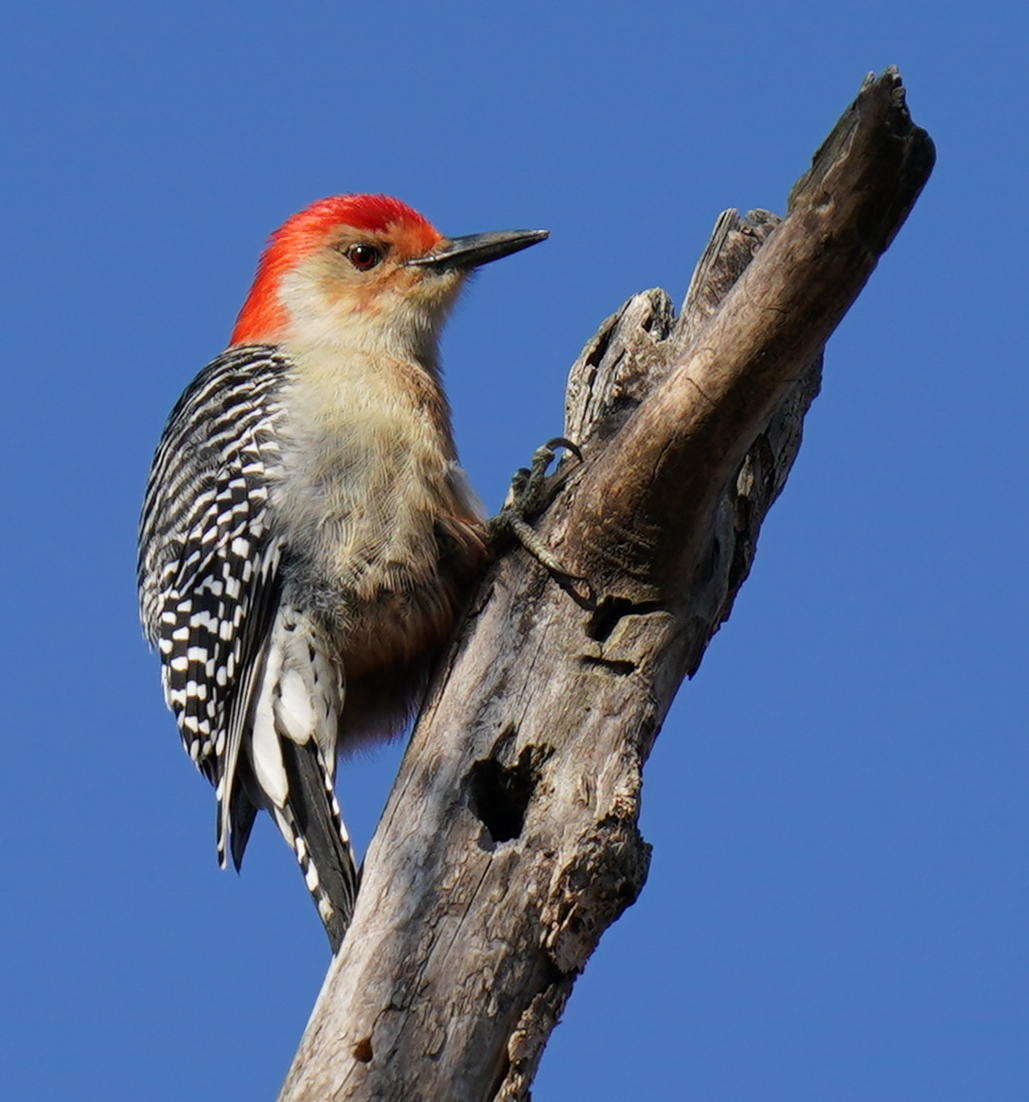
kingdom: Animalia
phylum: Chordata
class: Aves
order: Piciformes
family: Picidae
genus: Melanerpes
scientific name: Melanerpes carolinus
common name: Red-bellied woodpecker
